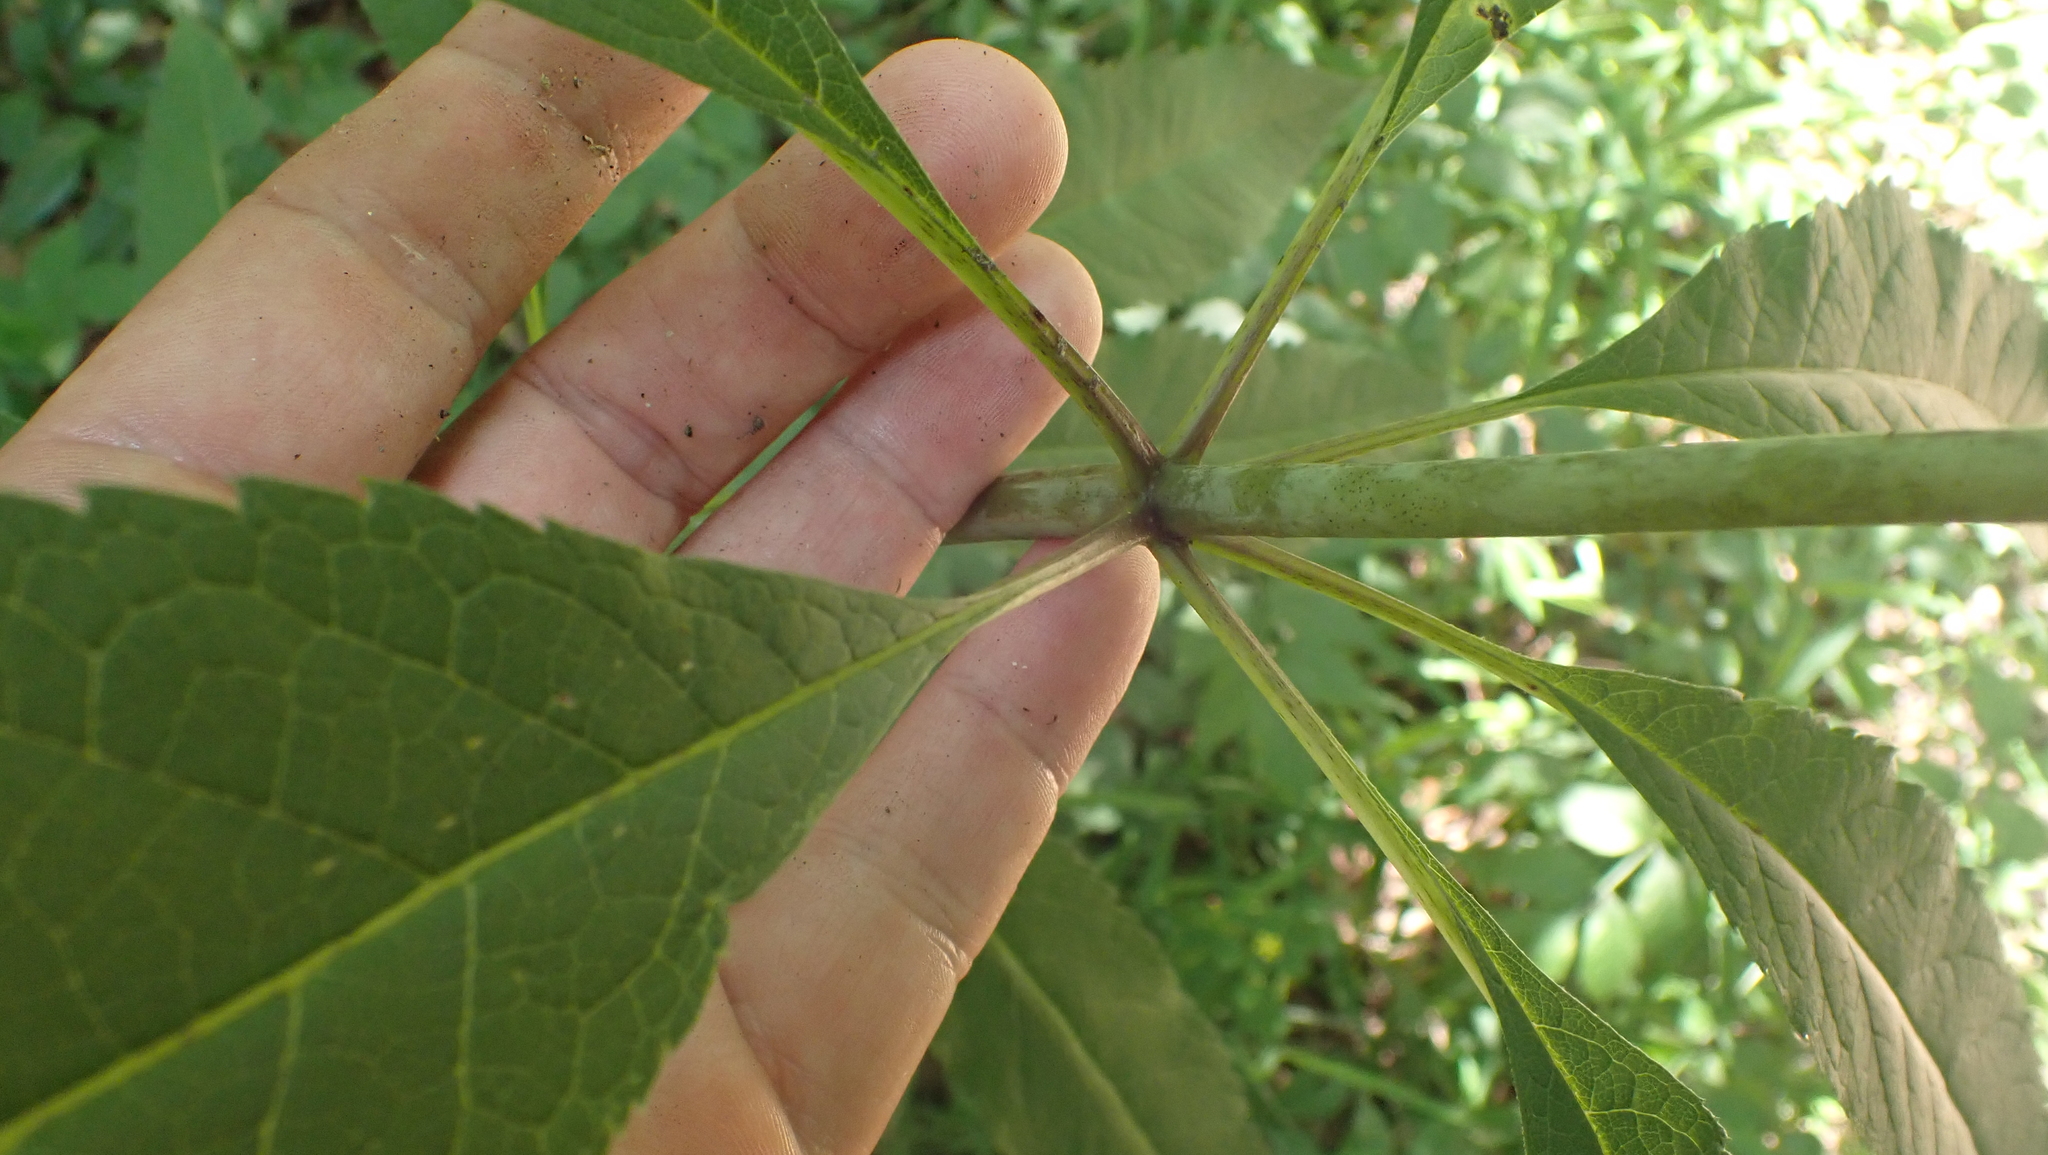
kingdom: Animalia
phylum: Arthropoda
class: Insecta
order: Diptera
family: Agromyzidae
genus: Calycomyza
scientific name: Calycomyza flavinotum
